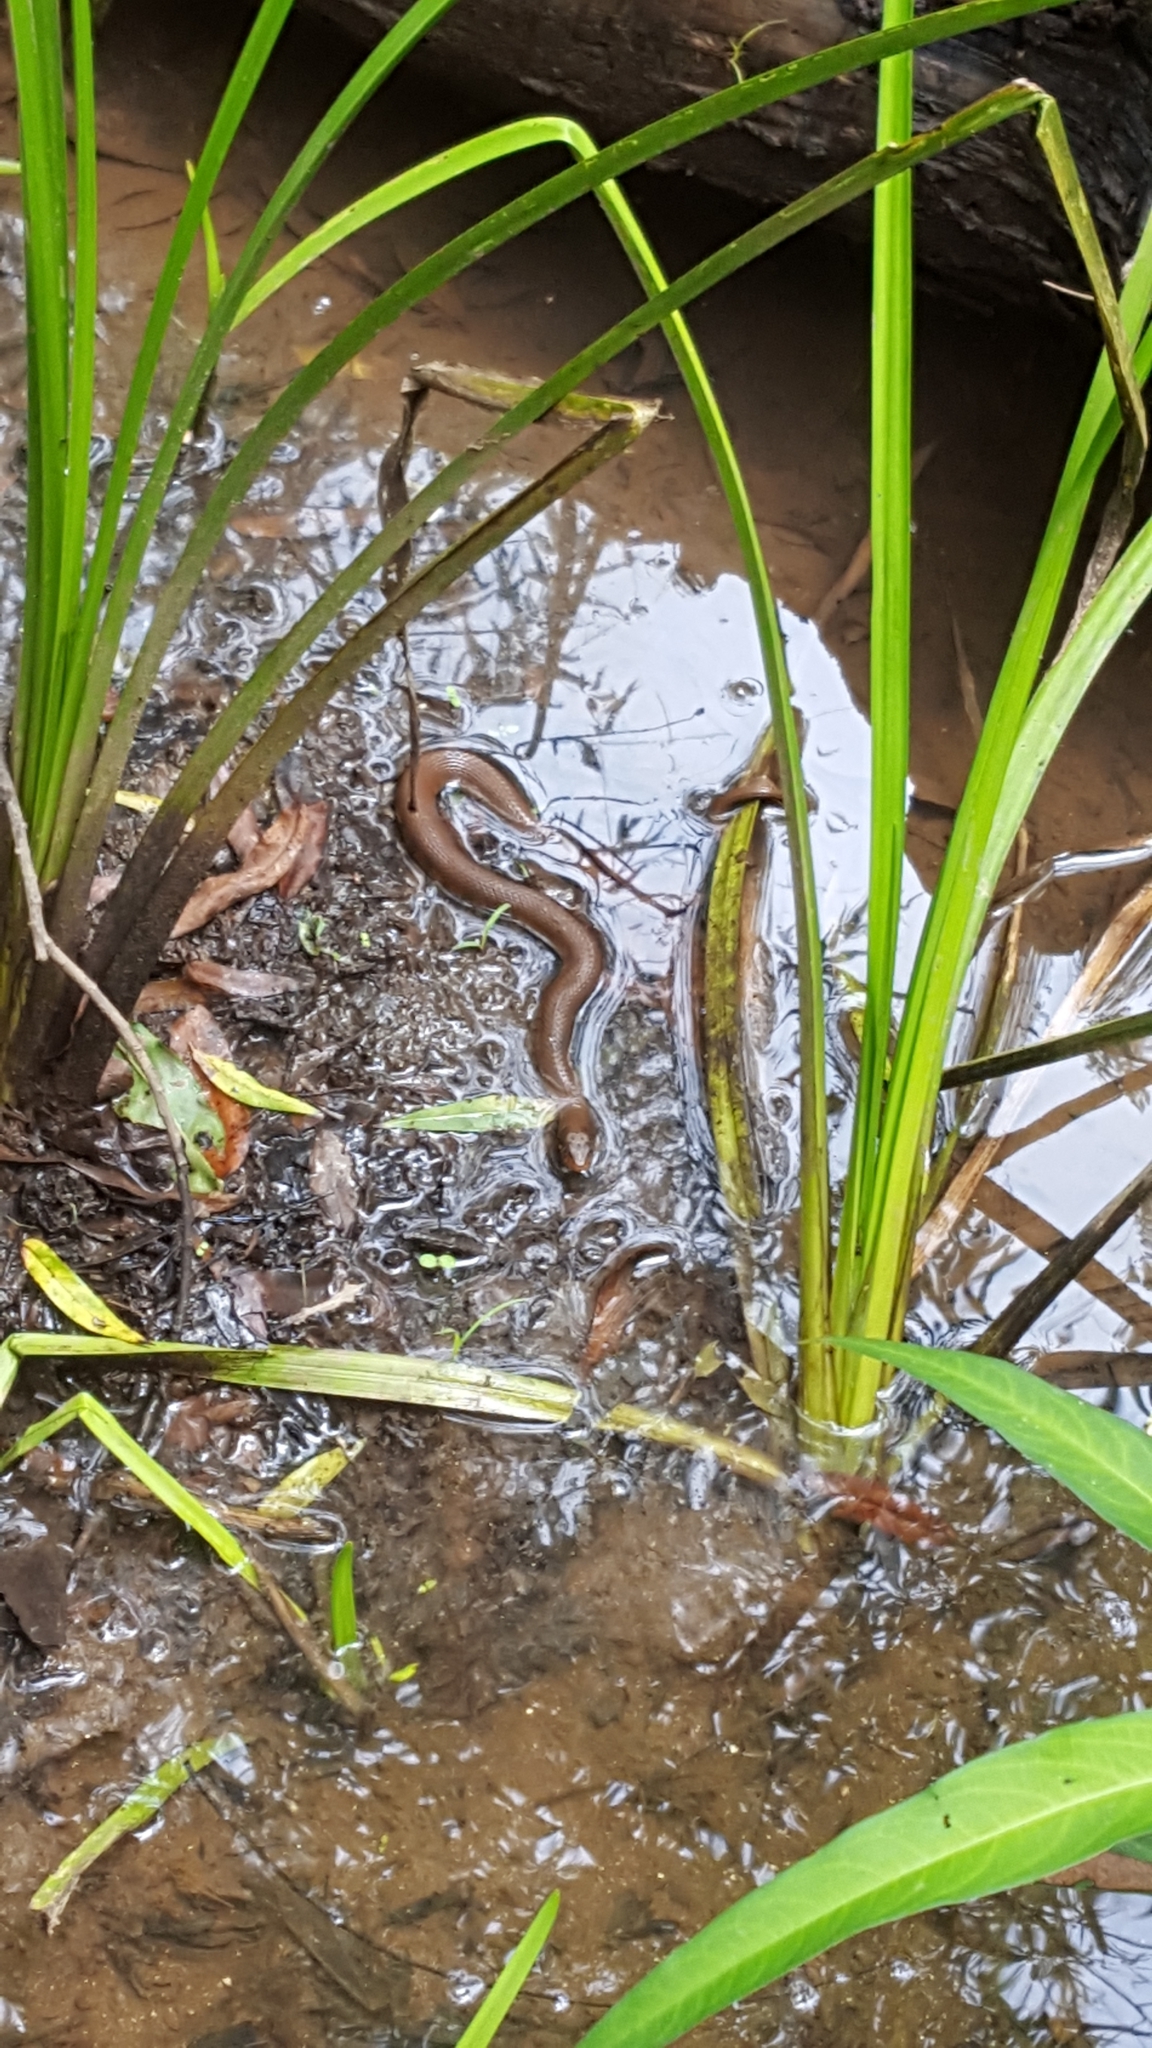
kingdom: Animalia
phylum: Chordata
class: Squamata
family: Colubridae
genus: Nerodia
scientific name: Nerodia erythrogaster
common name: Plainbelly water snake
